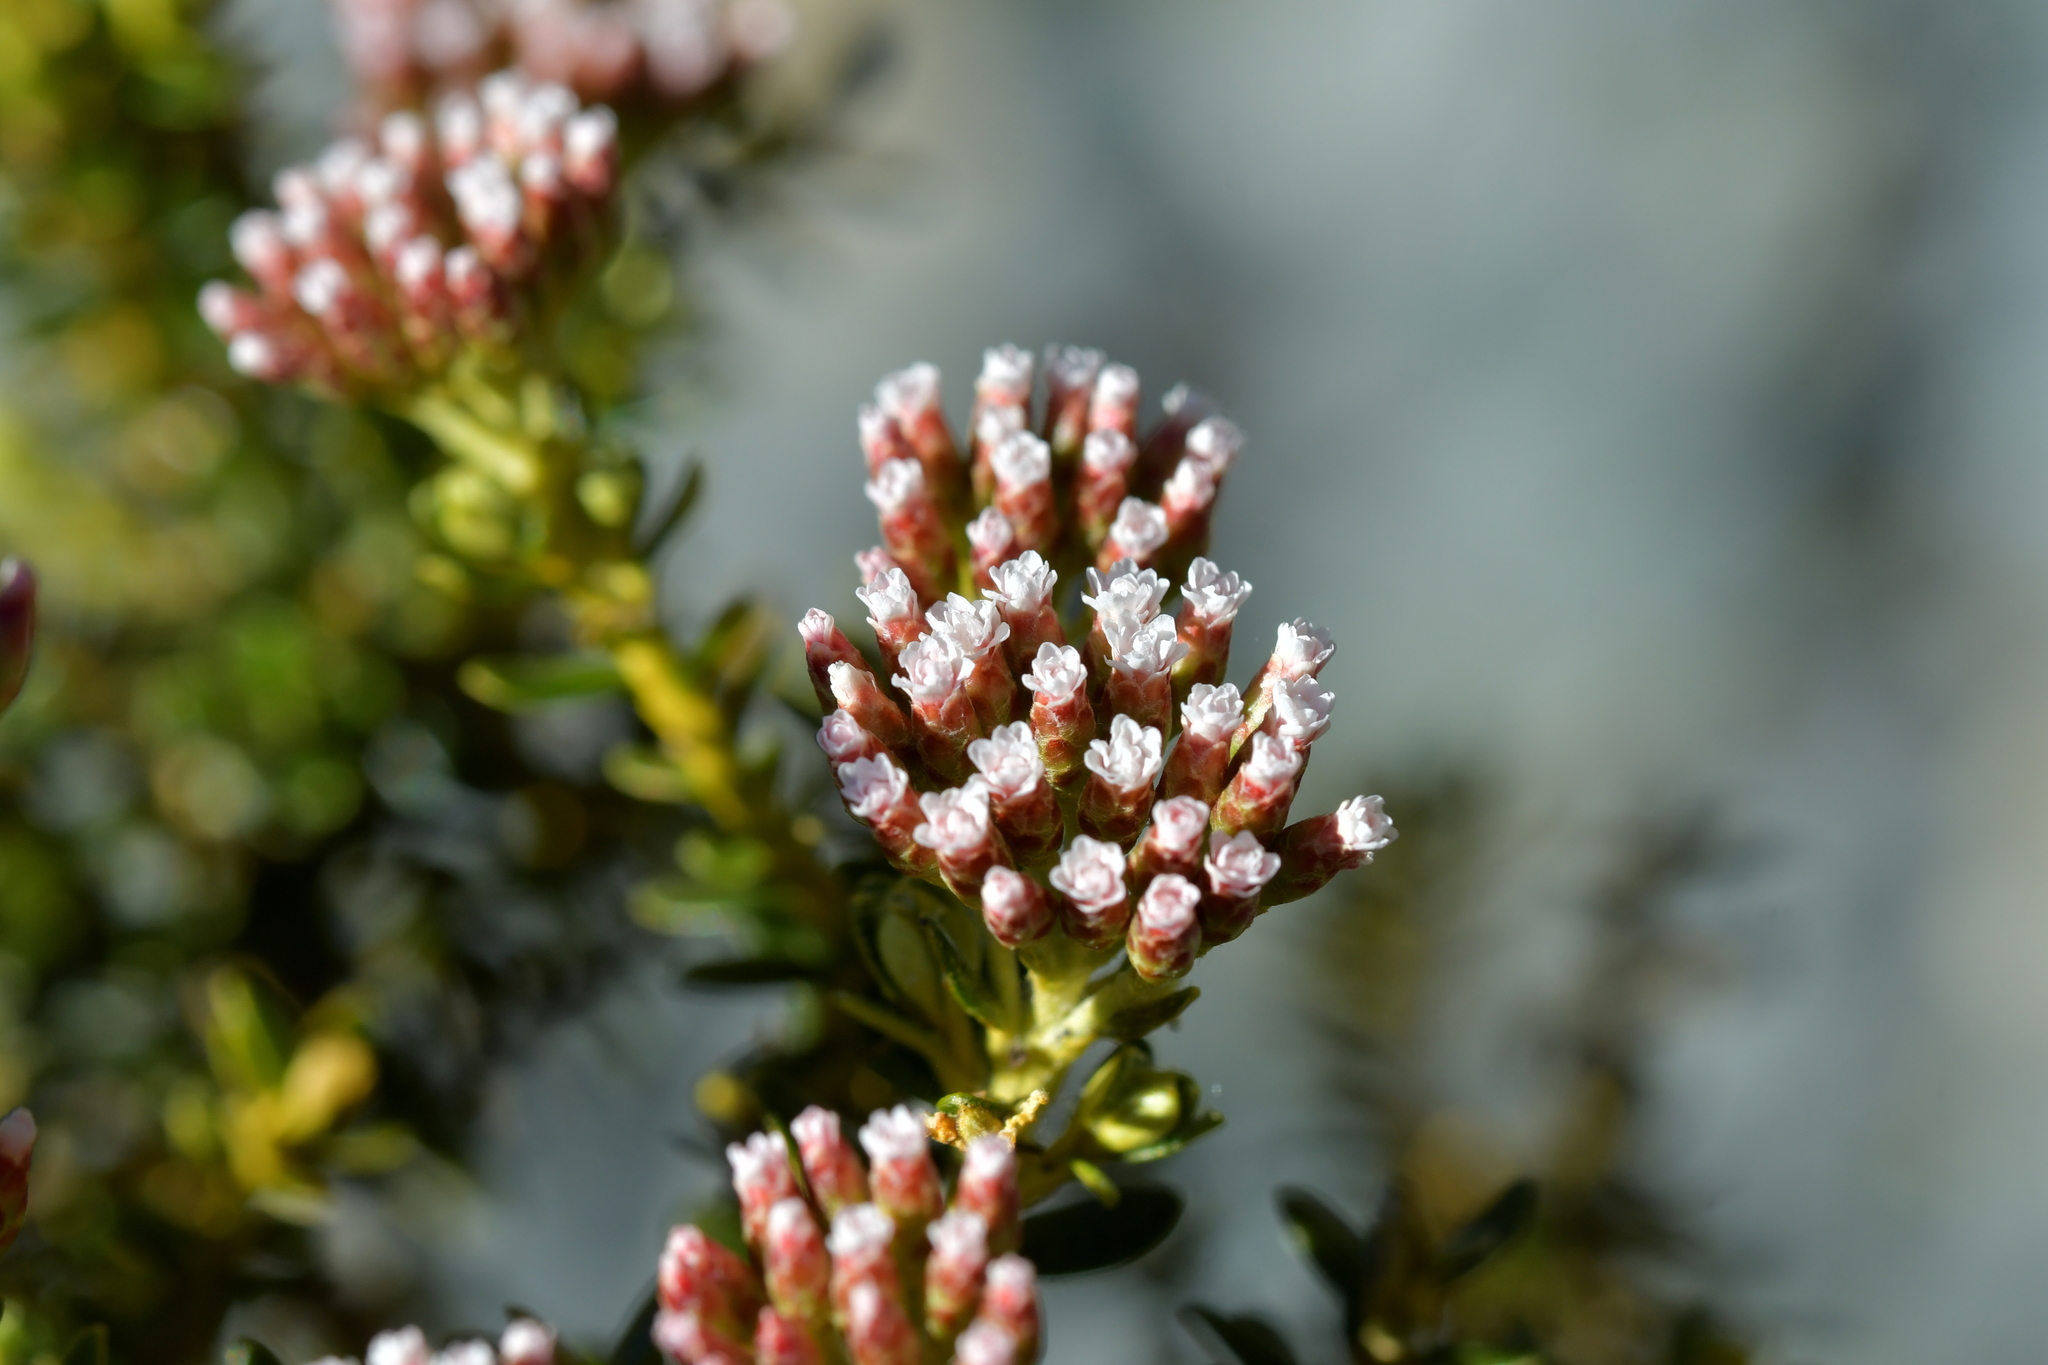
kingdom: Plantae
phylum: Tracheophyta
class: Magnoliopsida
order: Asterales
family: Asteraceae
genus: Ozothamnus
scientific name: Ozothamnus leptophyllus
